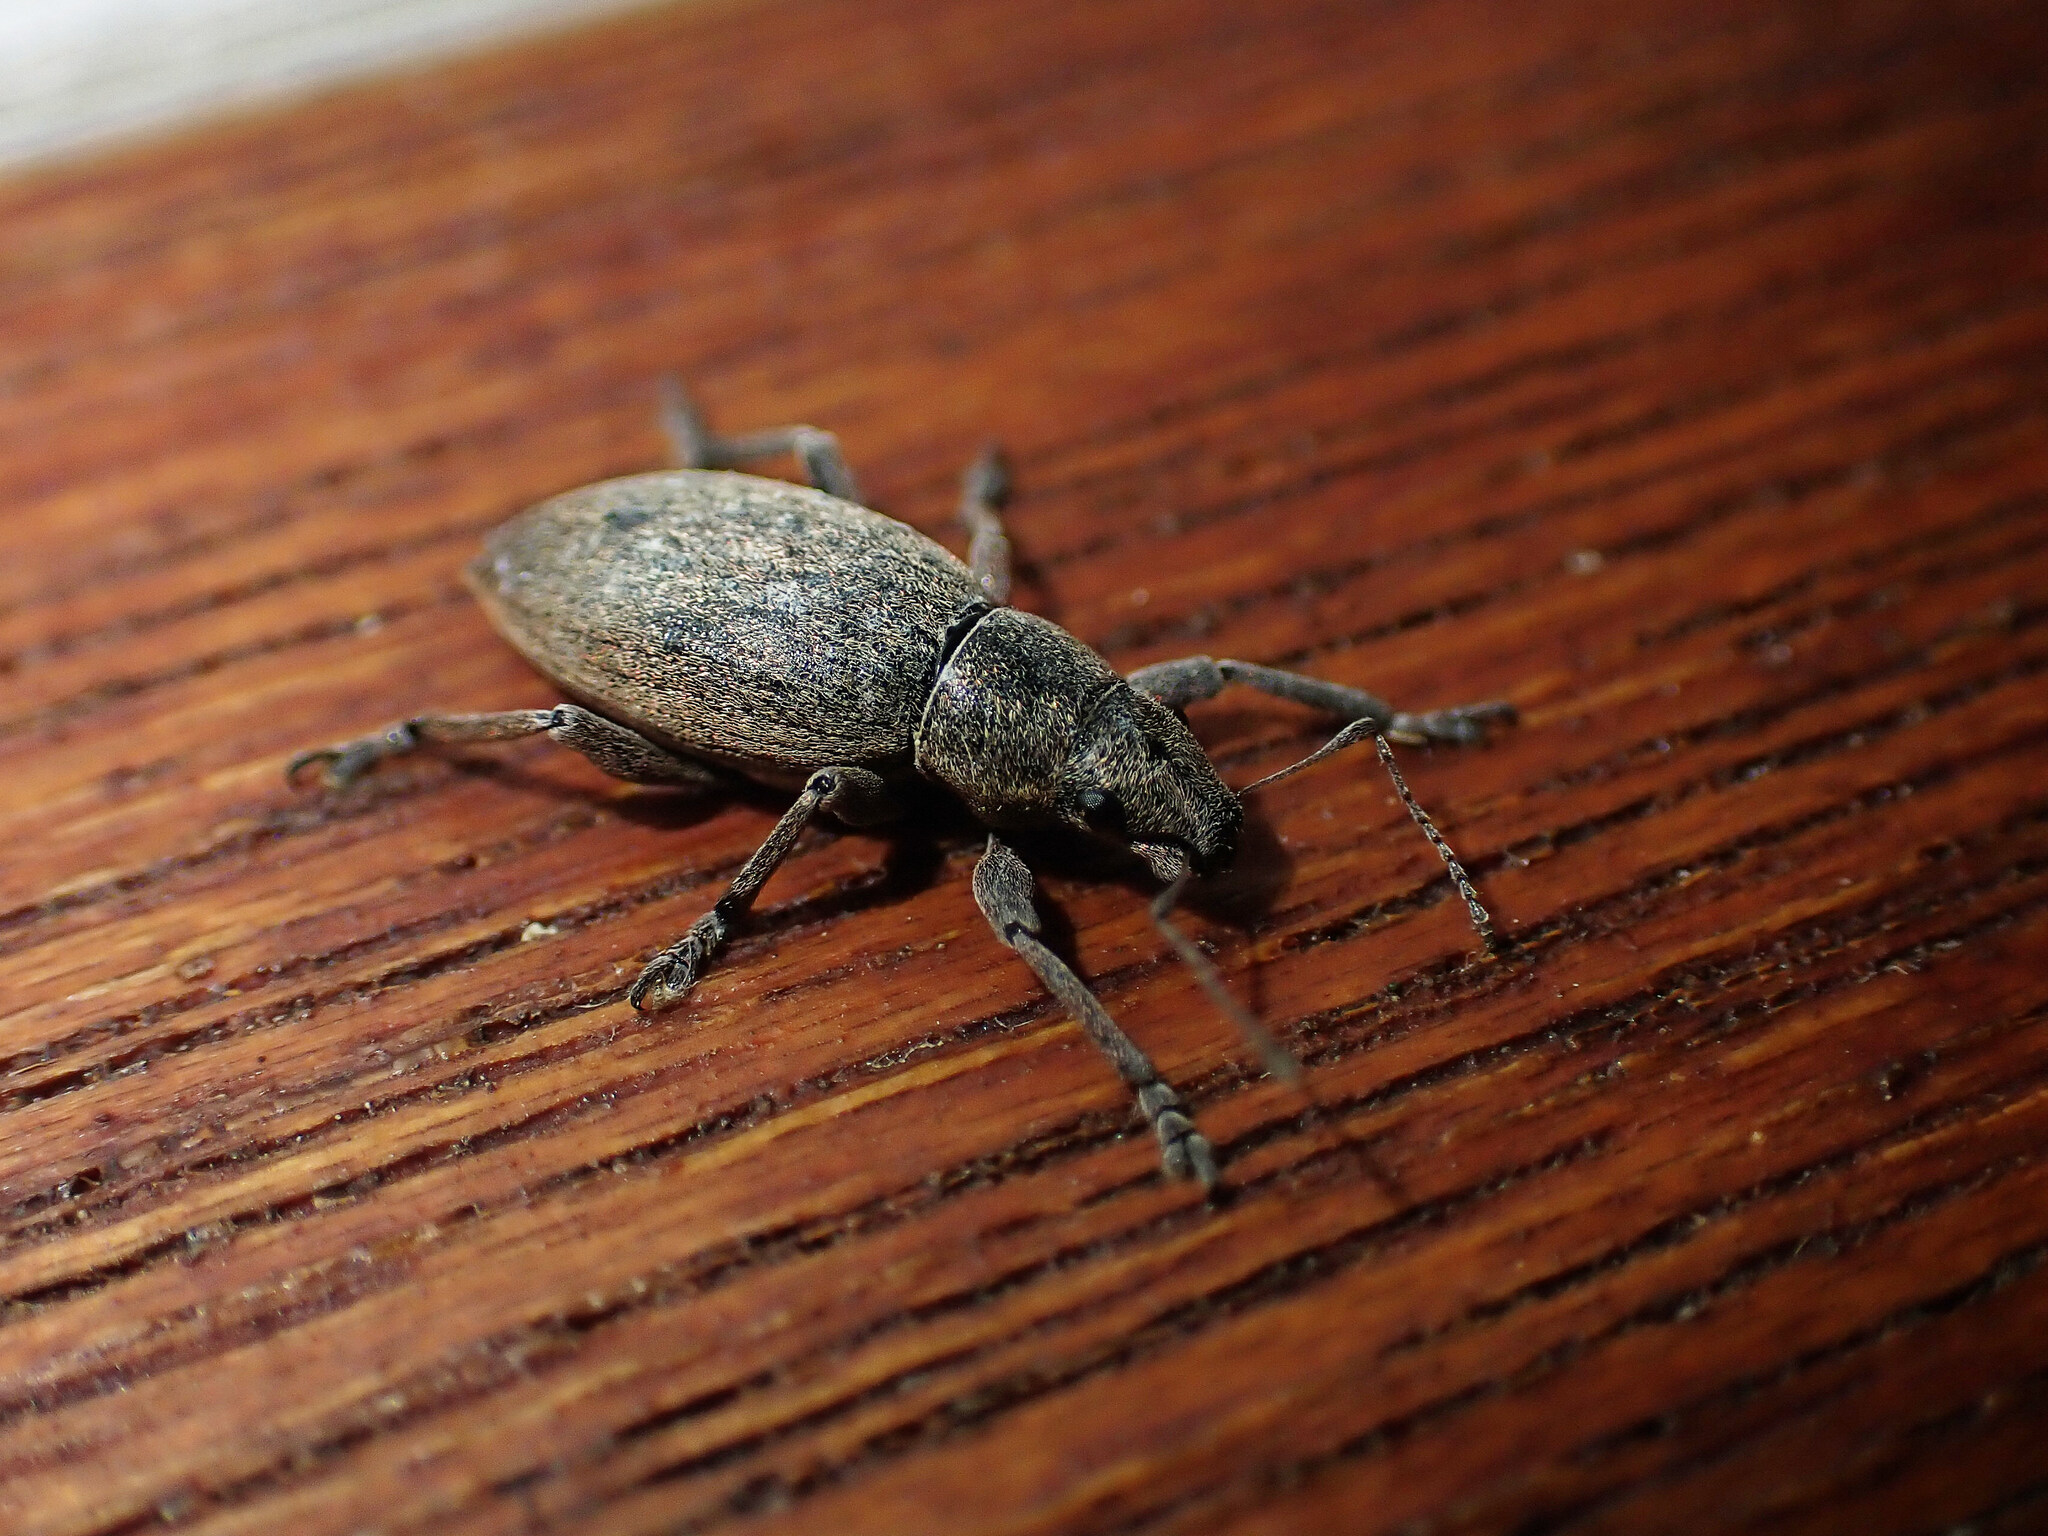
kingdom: Animalia
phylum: Arthropoda
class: Insecta
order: Coleoptera
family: Curculionidae
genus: Brachyderes
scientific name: Brachyderes incanus
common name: Weevil
